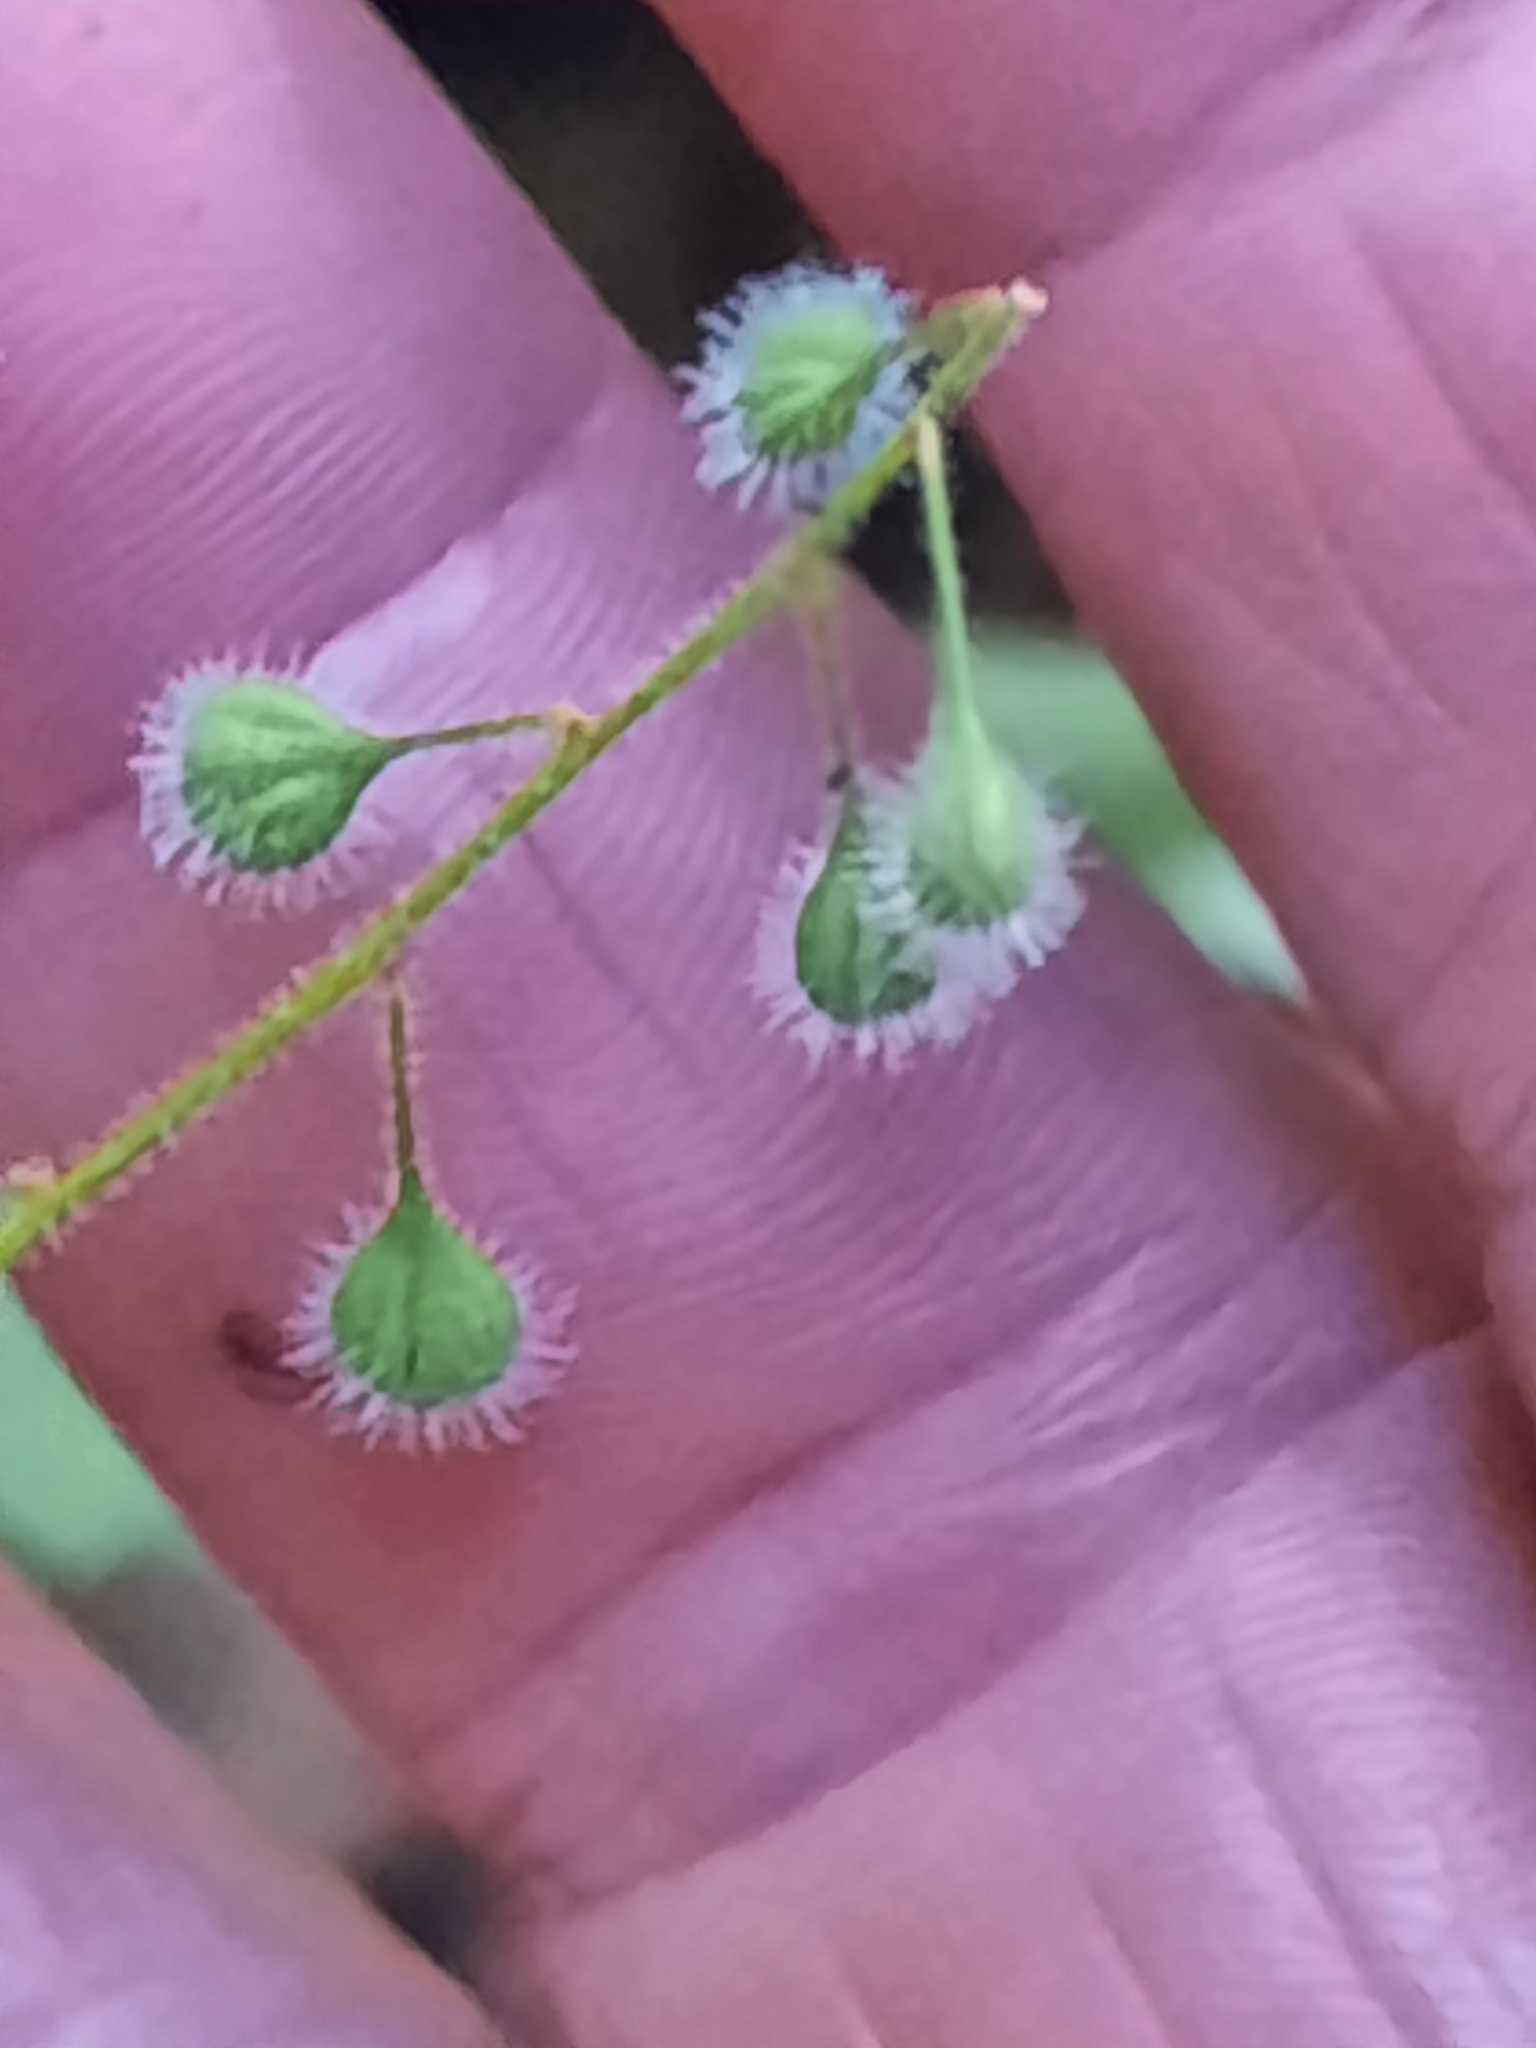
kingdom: Plantae
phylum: Tracheophyta
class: Magnoliopsida
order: Myrtales
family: Onagraceae
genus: Circaea
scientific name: Circaea canadensis
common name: Broad-leaved enchanter's nightshade
